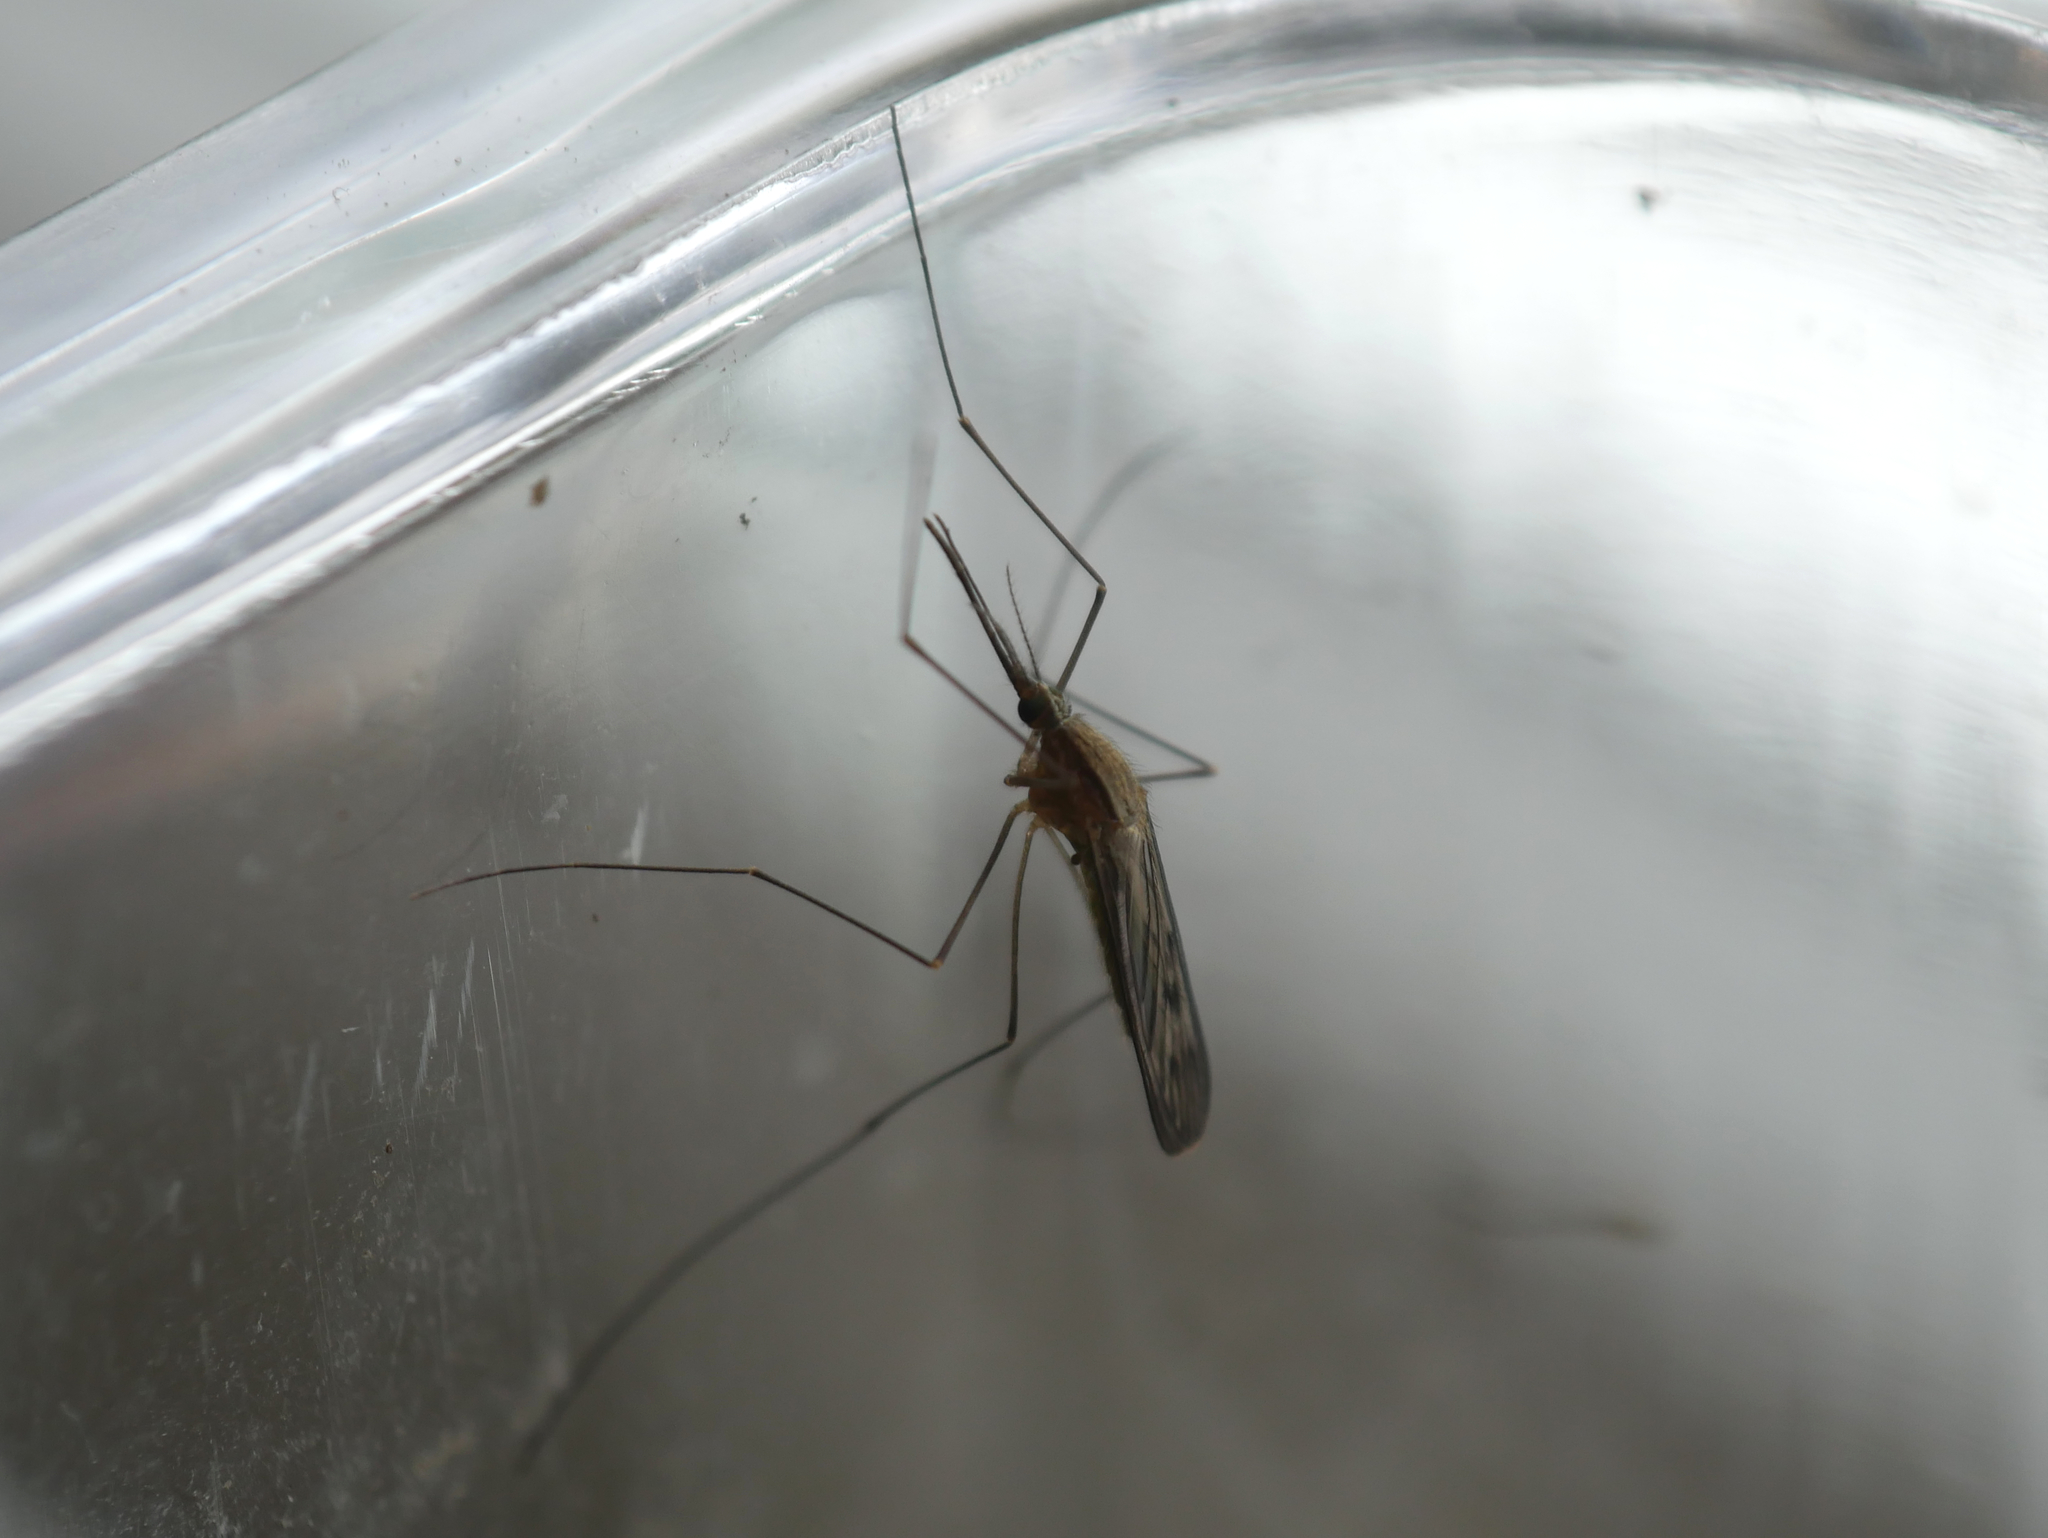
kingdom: Animalia
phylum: Arthropoda
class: Insecta
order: Diptera
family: Culicidae
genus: Anopheles
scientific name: Anopheles
